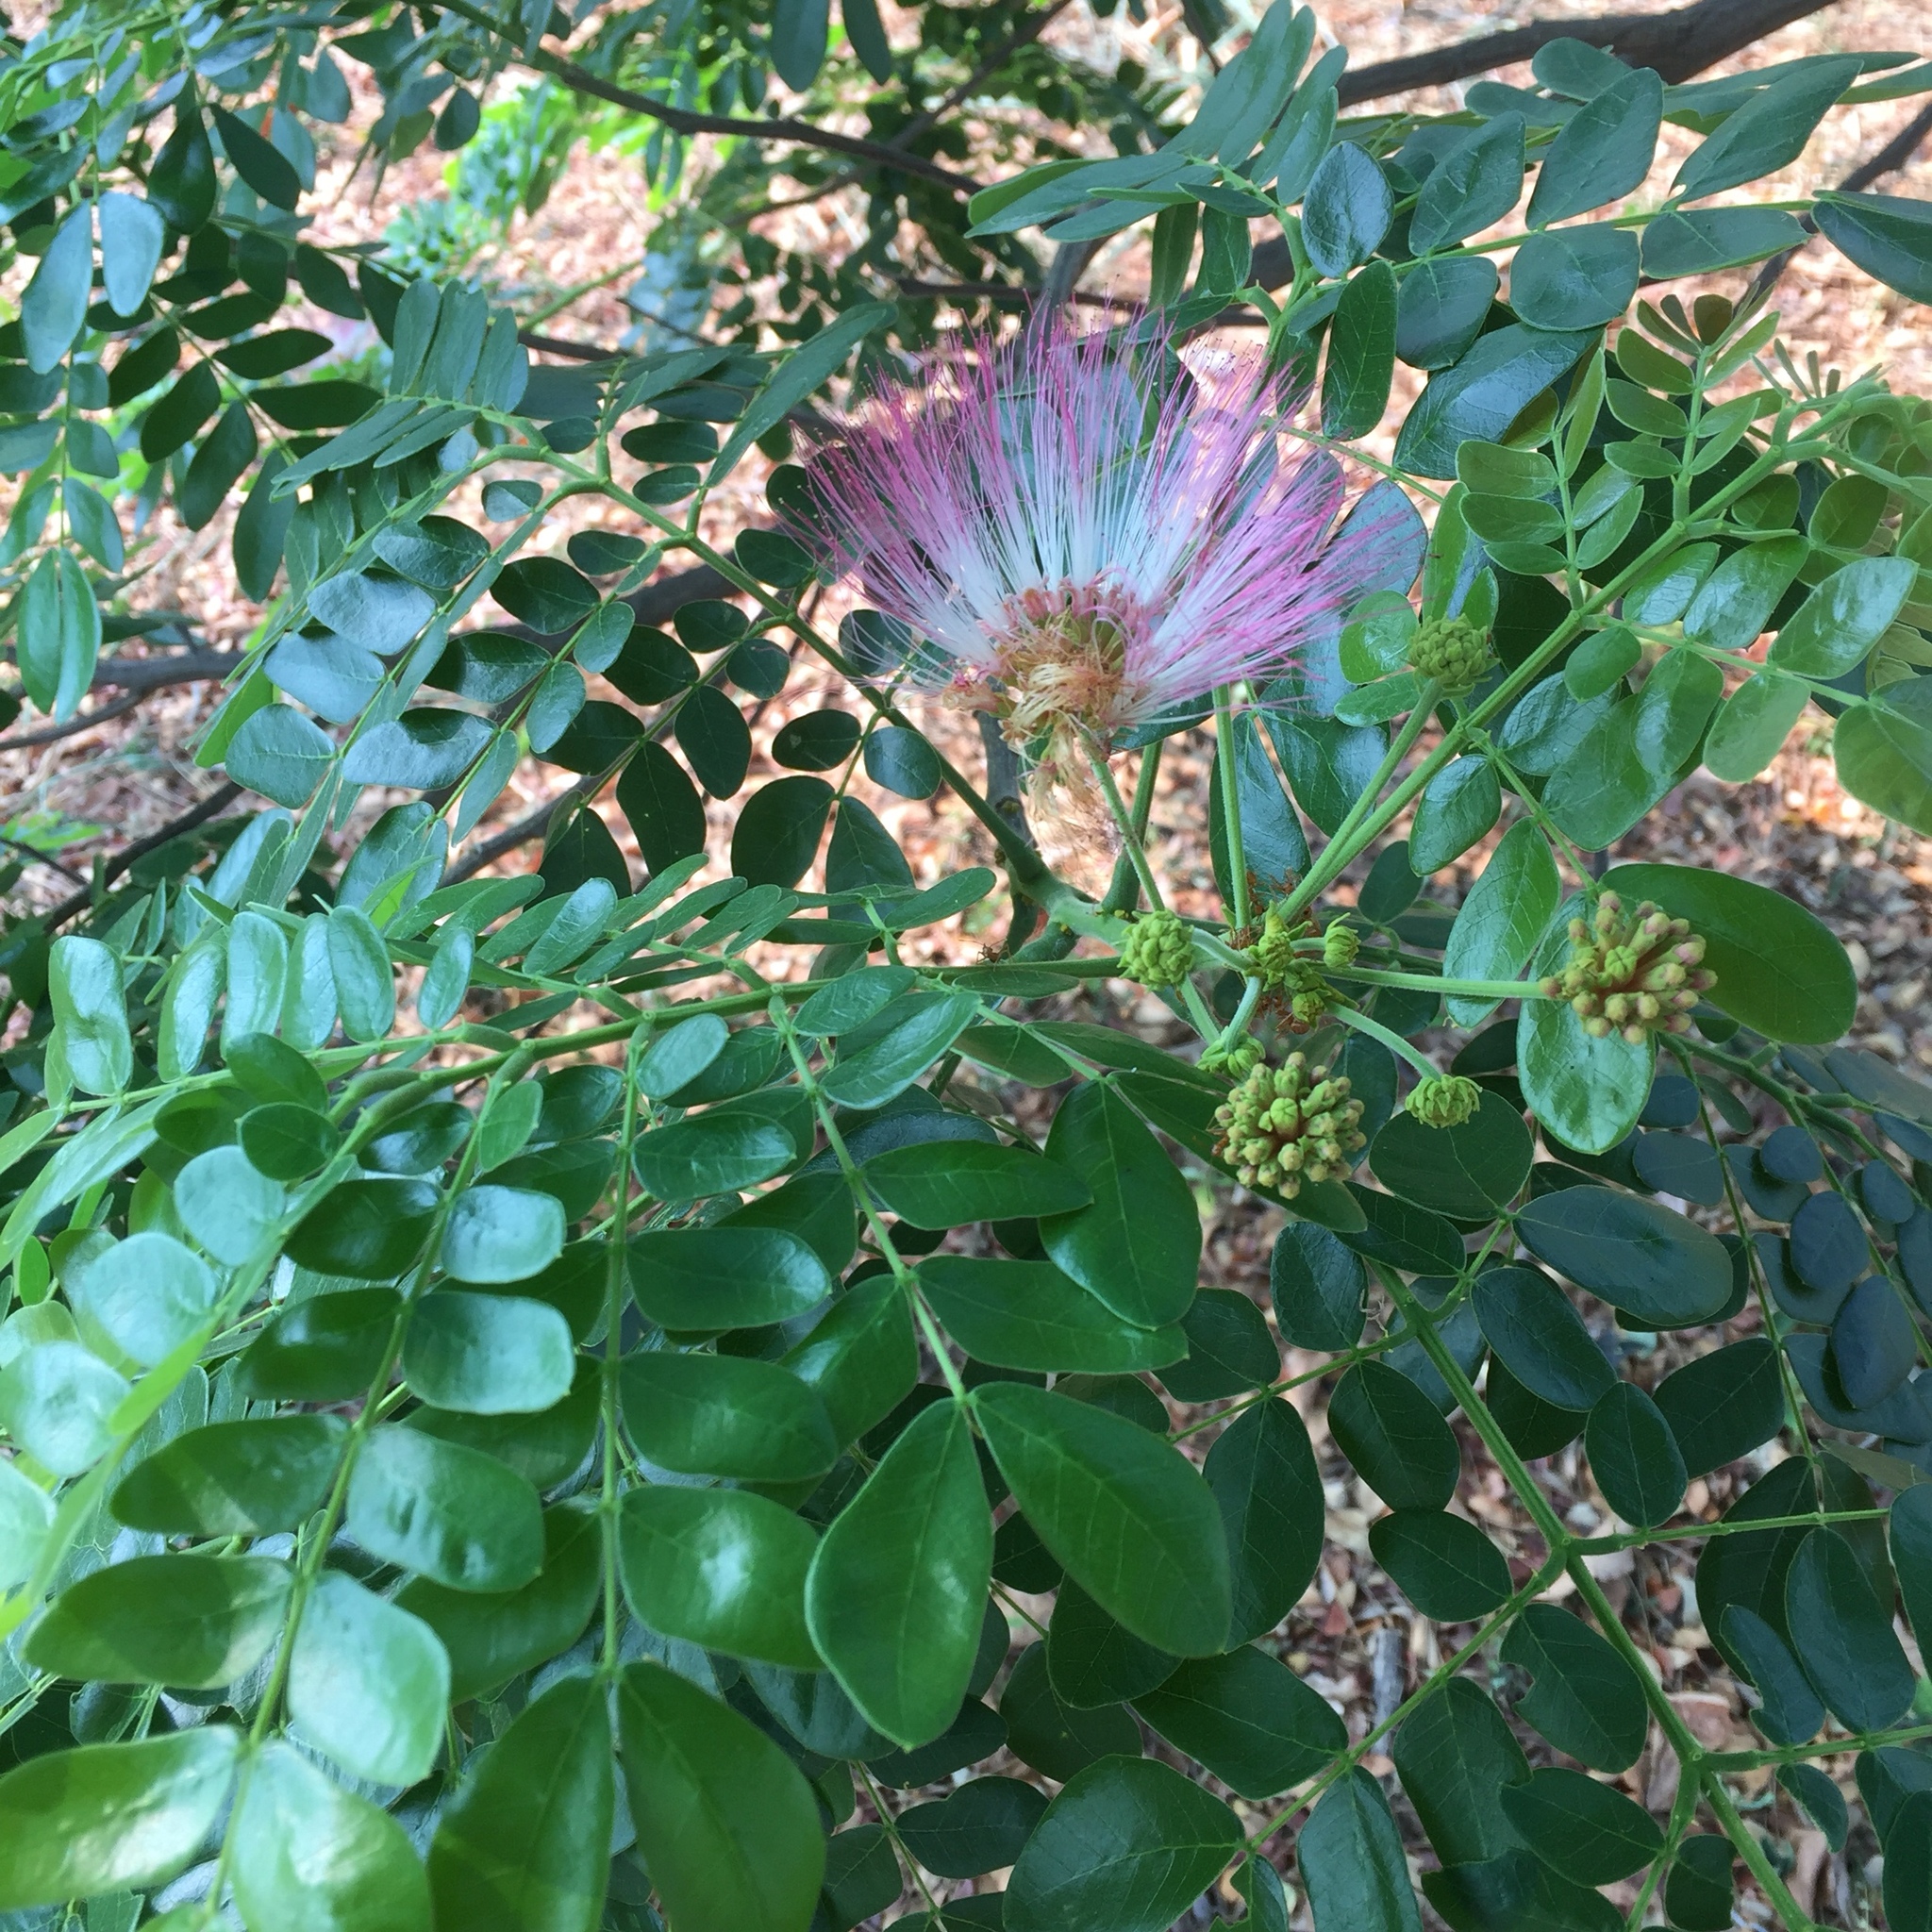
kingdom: Plantae
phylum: Tracheophyta
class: Magnoliopsida
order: Fabales
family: Fabaceae
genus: Samanea
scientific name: Samanea saman
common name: Raintree
